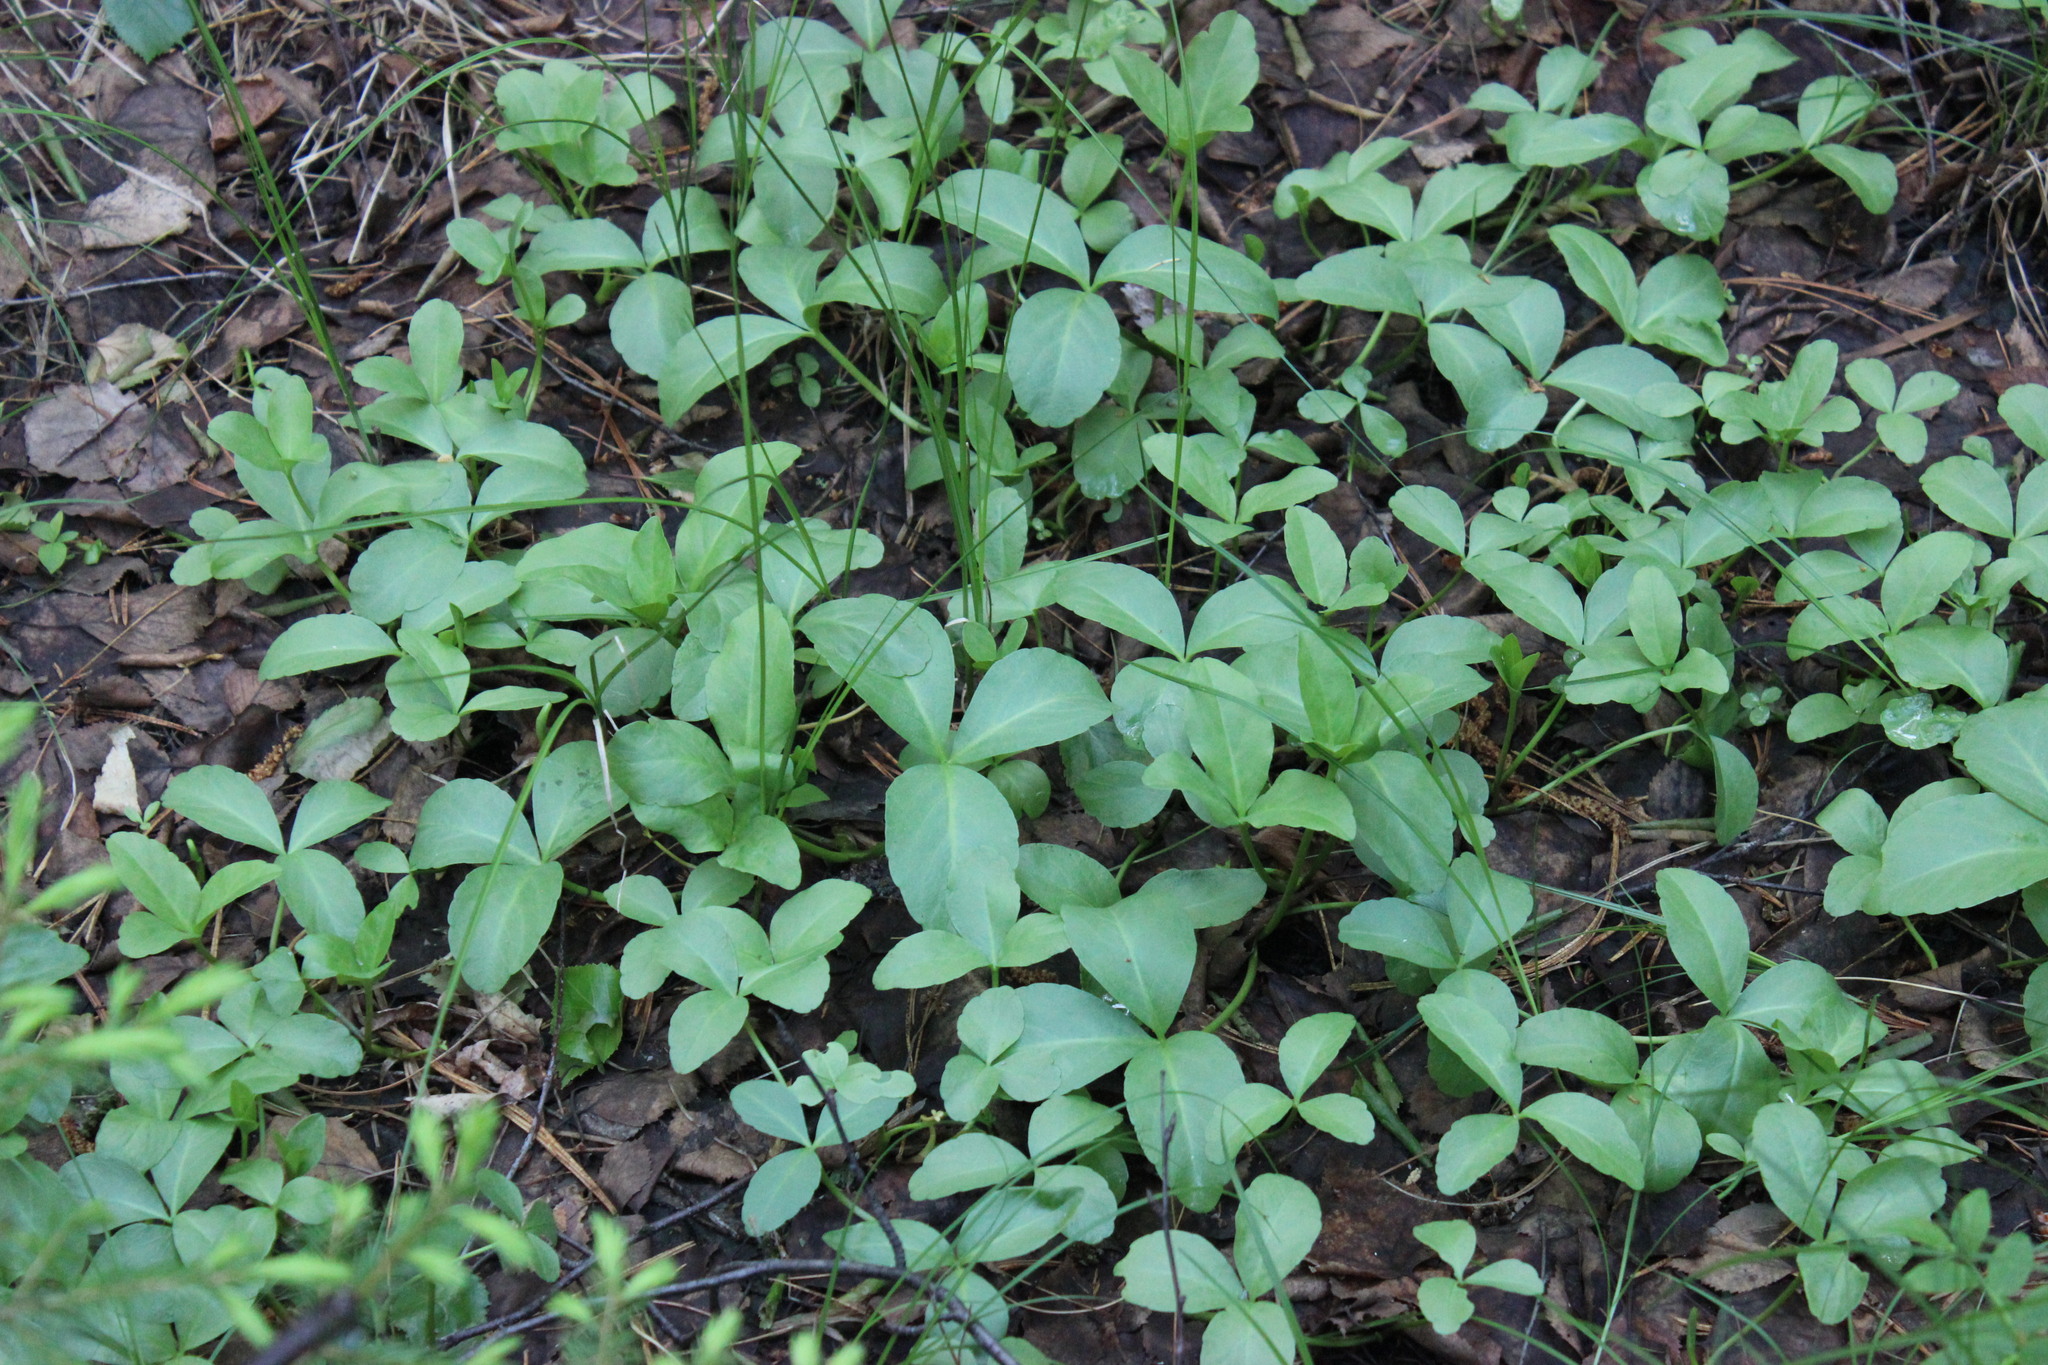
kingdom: Plantae
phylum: Tracheophyta
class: Magnoliopsida
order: Asterales
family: Menyanthaceae
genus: Menyanthes
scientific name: Menyanthes trifoliata
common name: Bogbean
